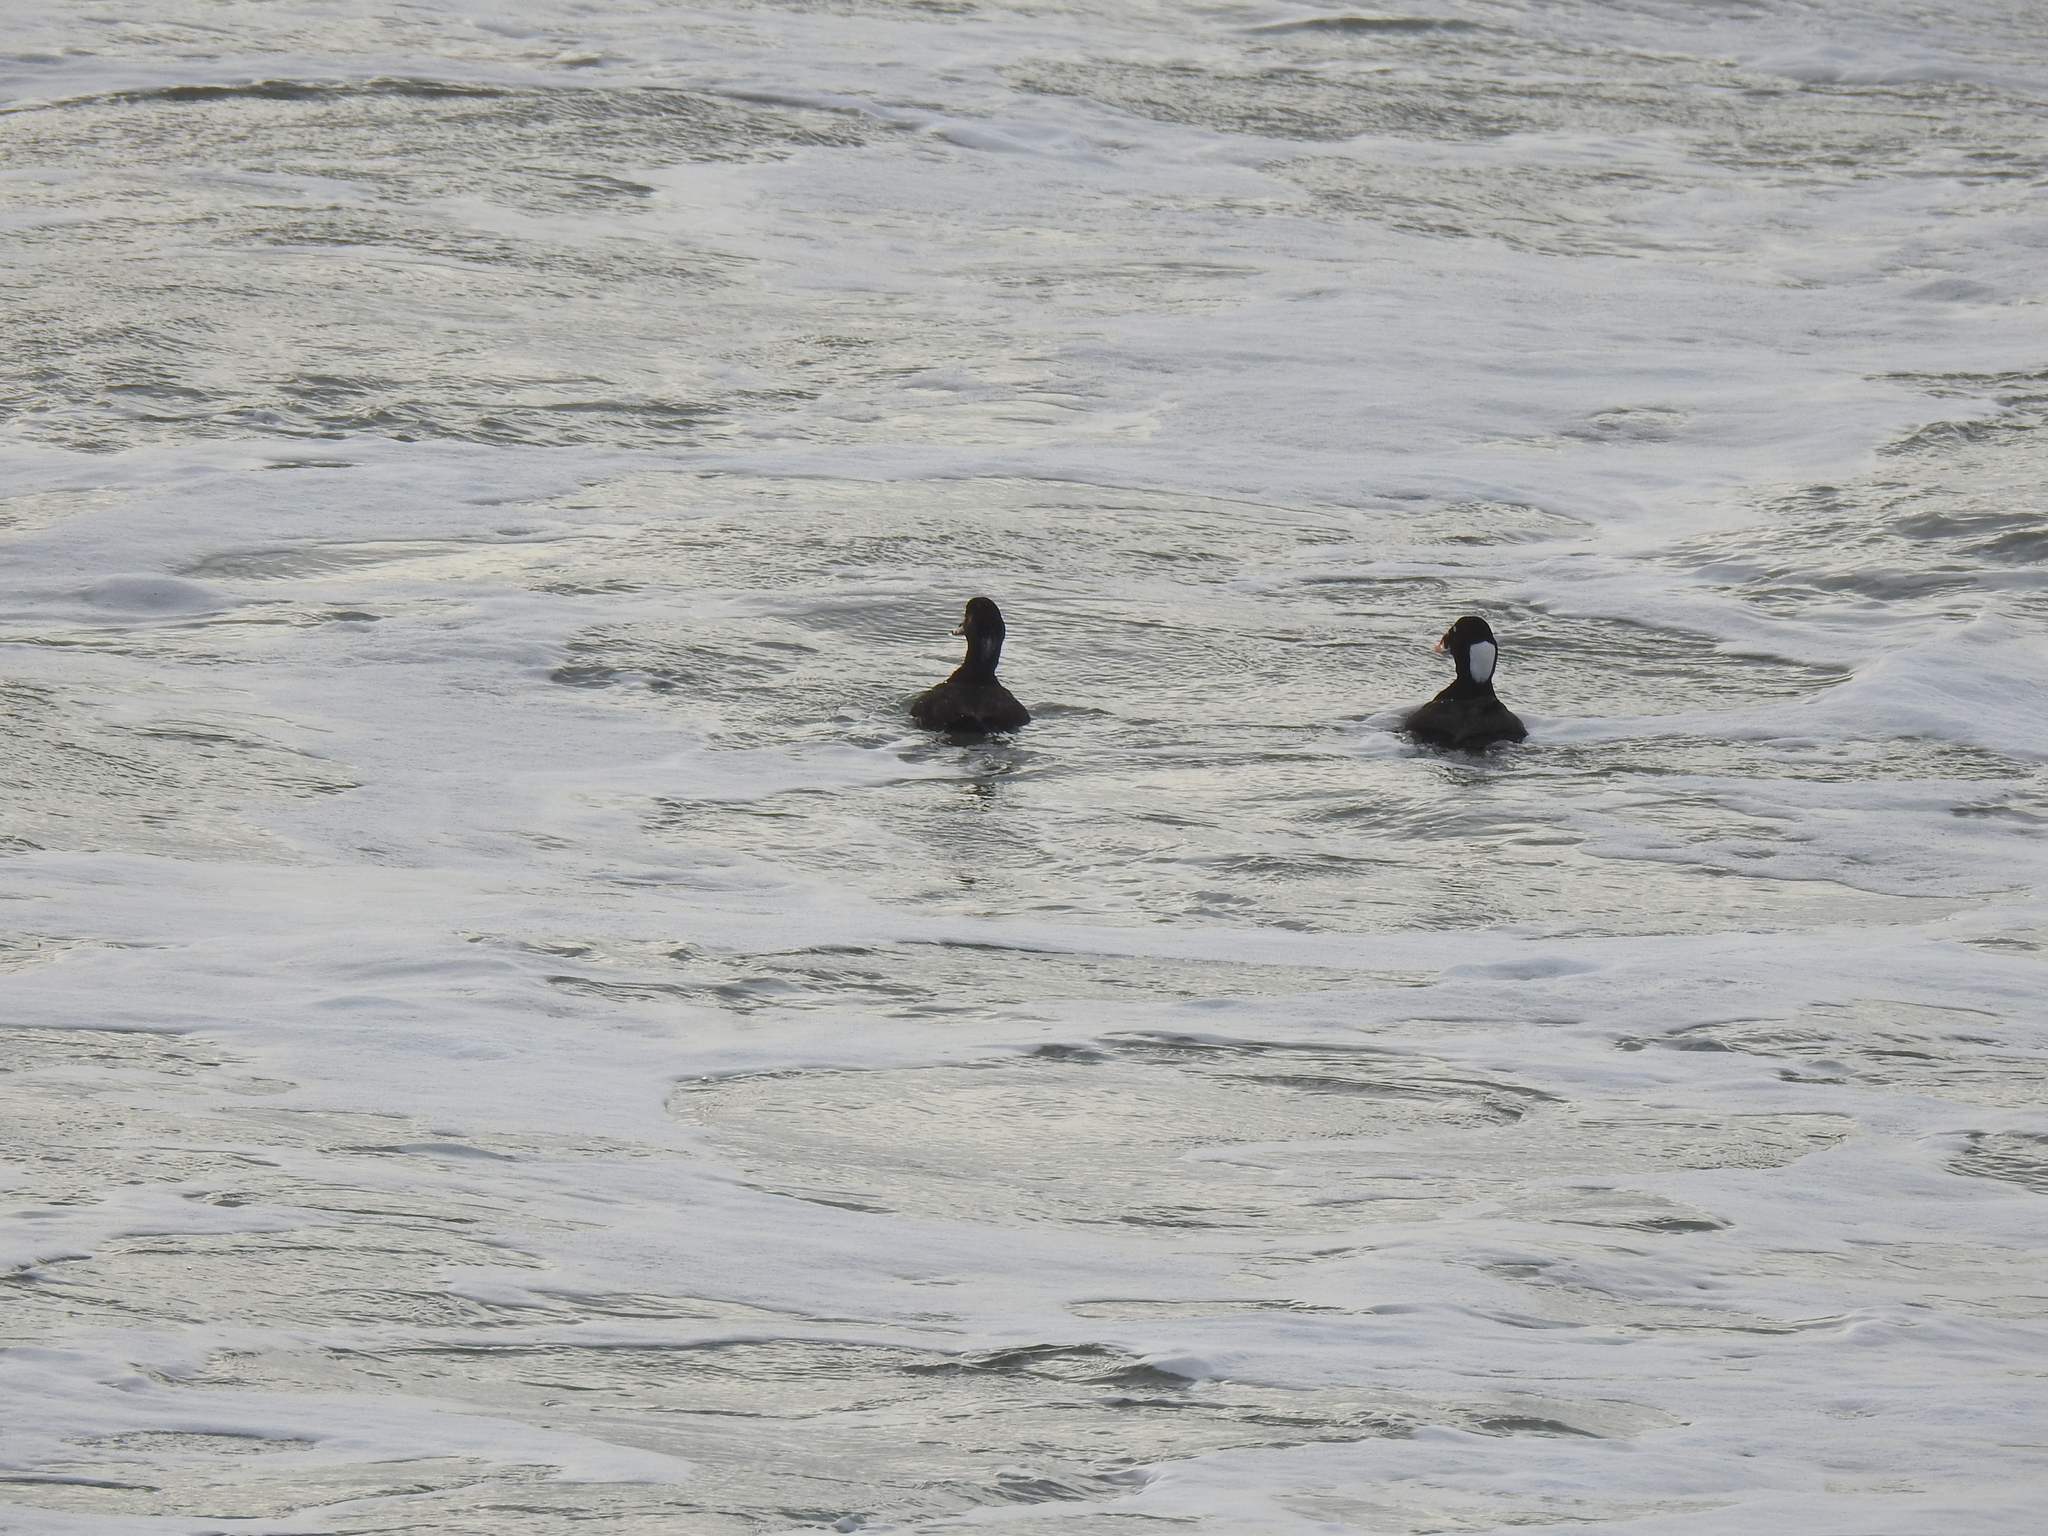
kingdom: Animalia
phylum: Chordata
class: Aves
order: Anseriformes
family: Anatidae
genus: Melanitta
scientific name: Melanitta perspicillata
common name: Surf scoter
